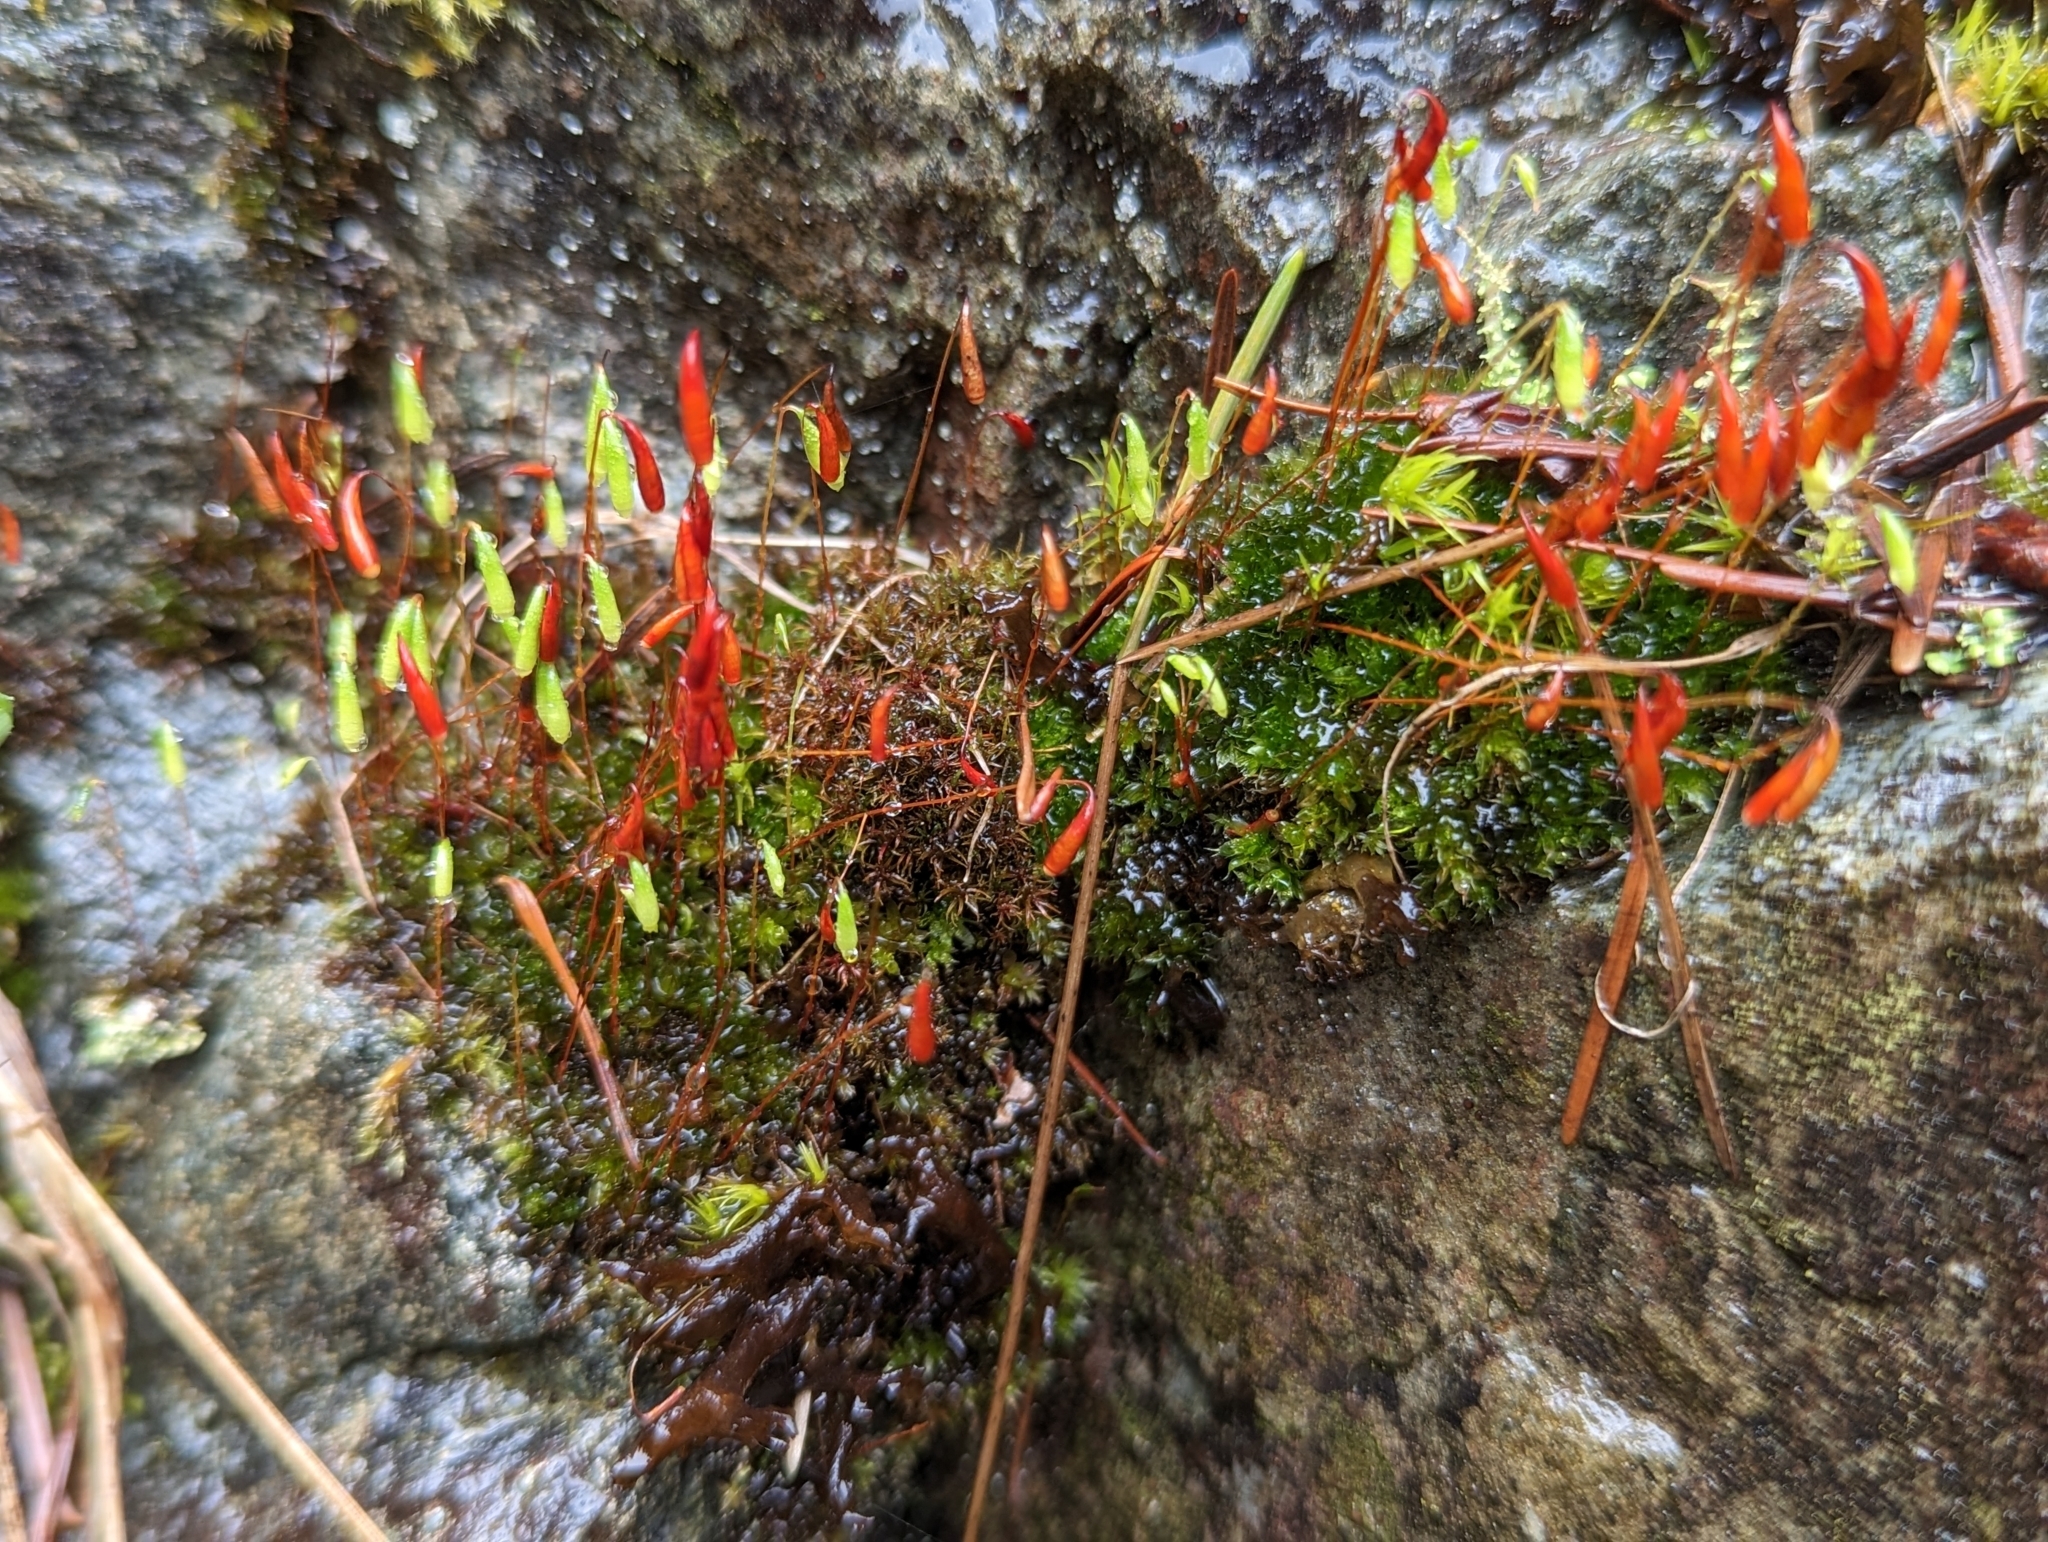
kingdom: Plantae
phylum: Bryophyta
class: Bryopsida
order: Bryales
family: Bryaceae
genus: Rosulabryum
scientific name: Rosulabryum capillare
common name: Capillary thread-moss
